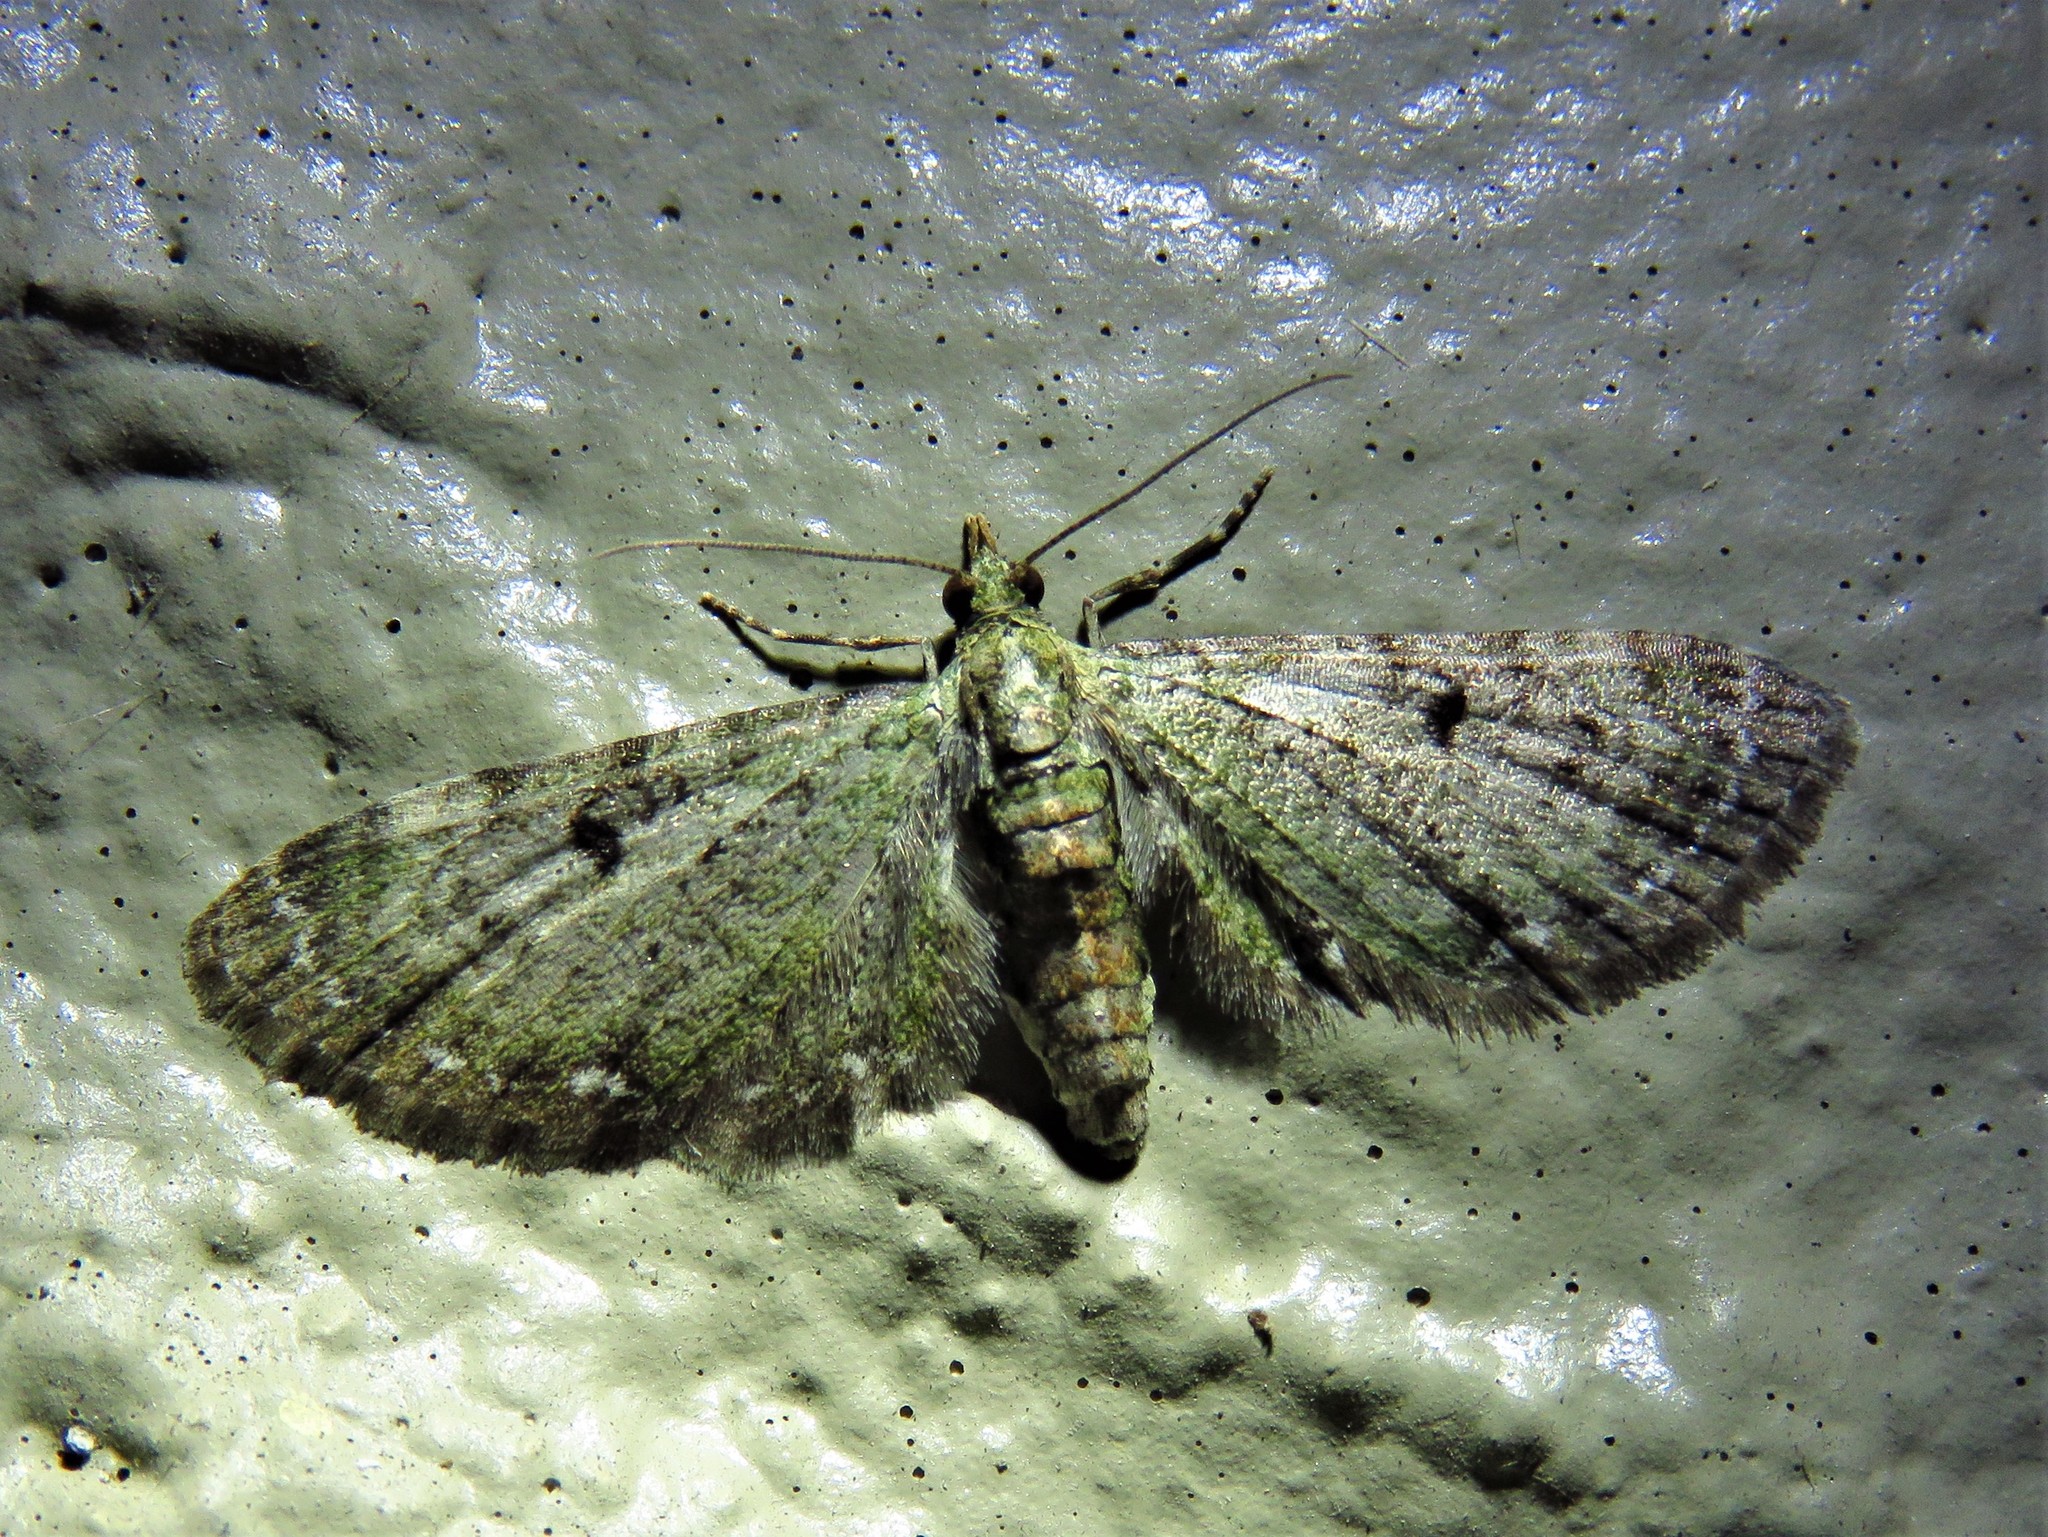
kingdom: Animalia
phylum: Arthropoda
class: Insecta
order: Lepidoptera
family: Geometridae
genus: Eupithecia
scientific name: Eupithecia miserulata
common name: Common eupithecia
